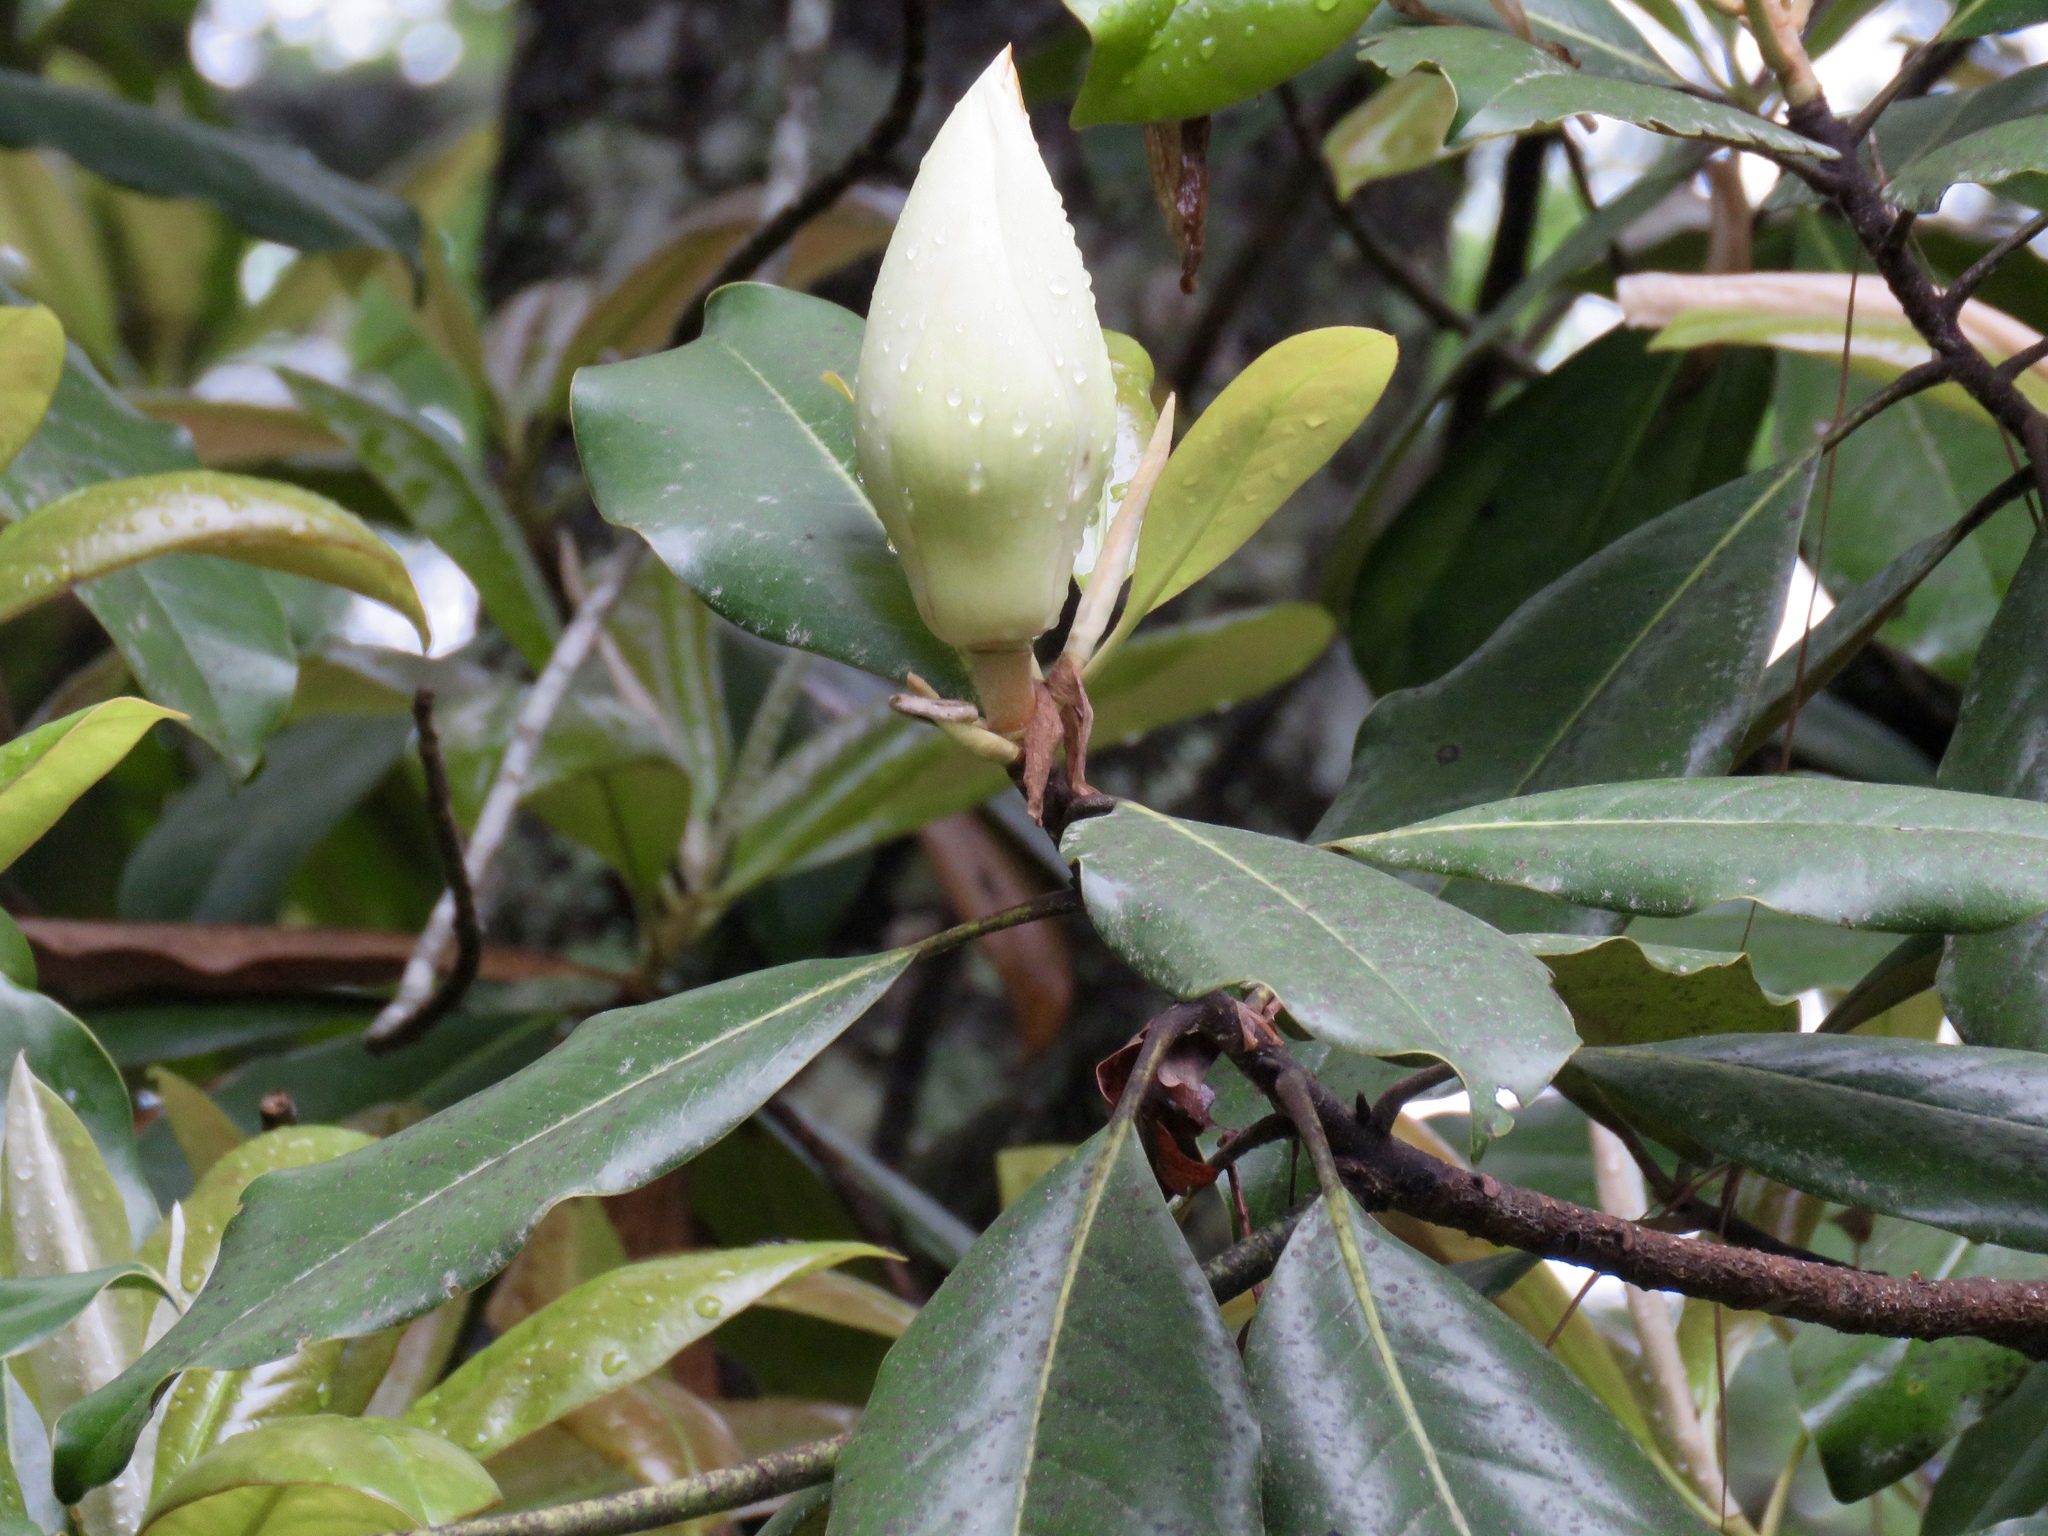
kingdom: Plantae
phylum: Tracheophyta
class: Magnoliopsida
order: Magnoliales
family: Magnoliaceae
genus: Magnolia
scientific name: Magnolia grandiflora
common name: Southern magnolia
